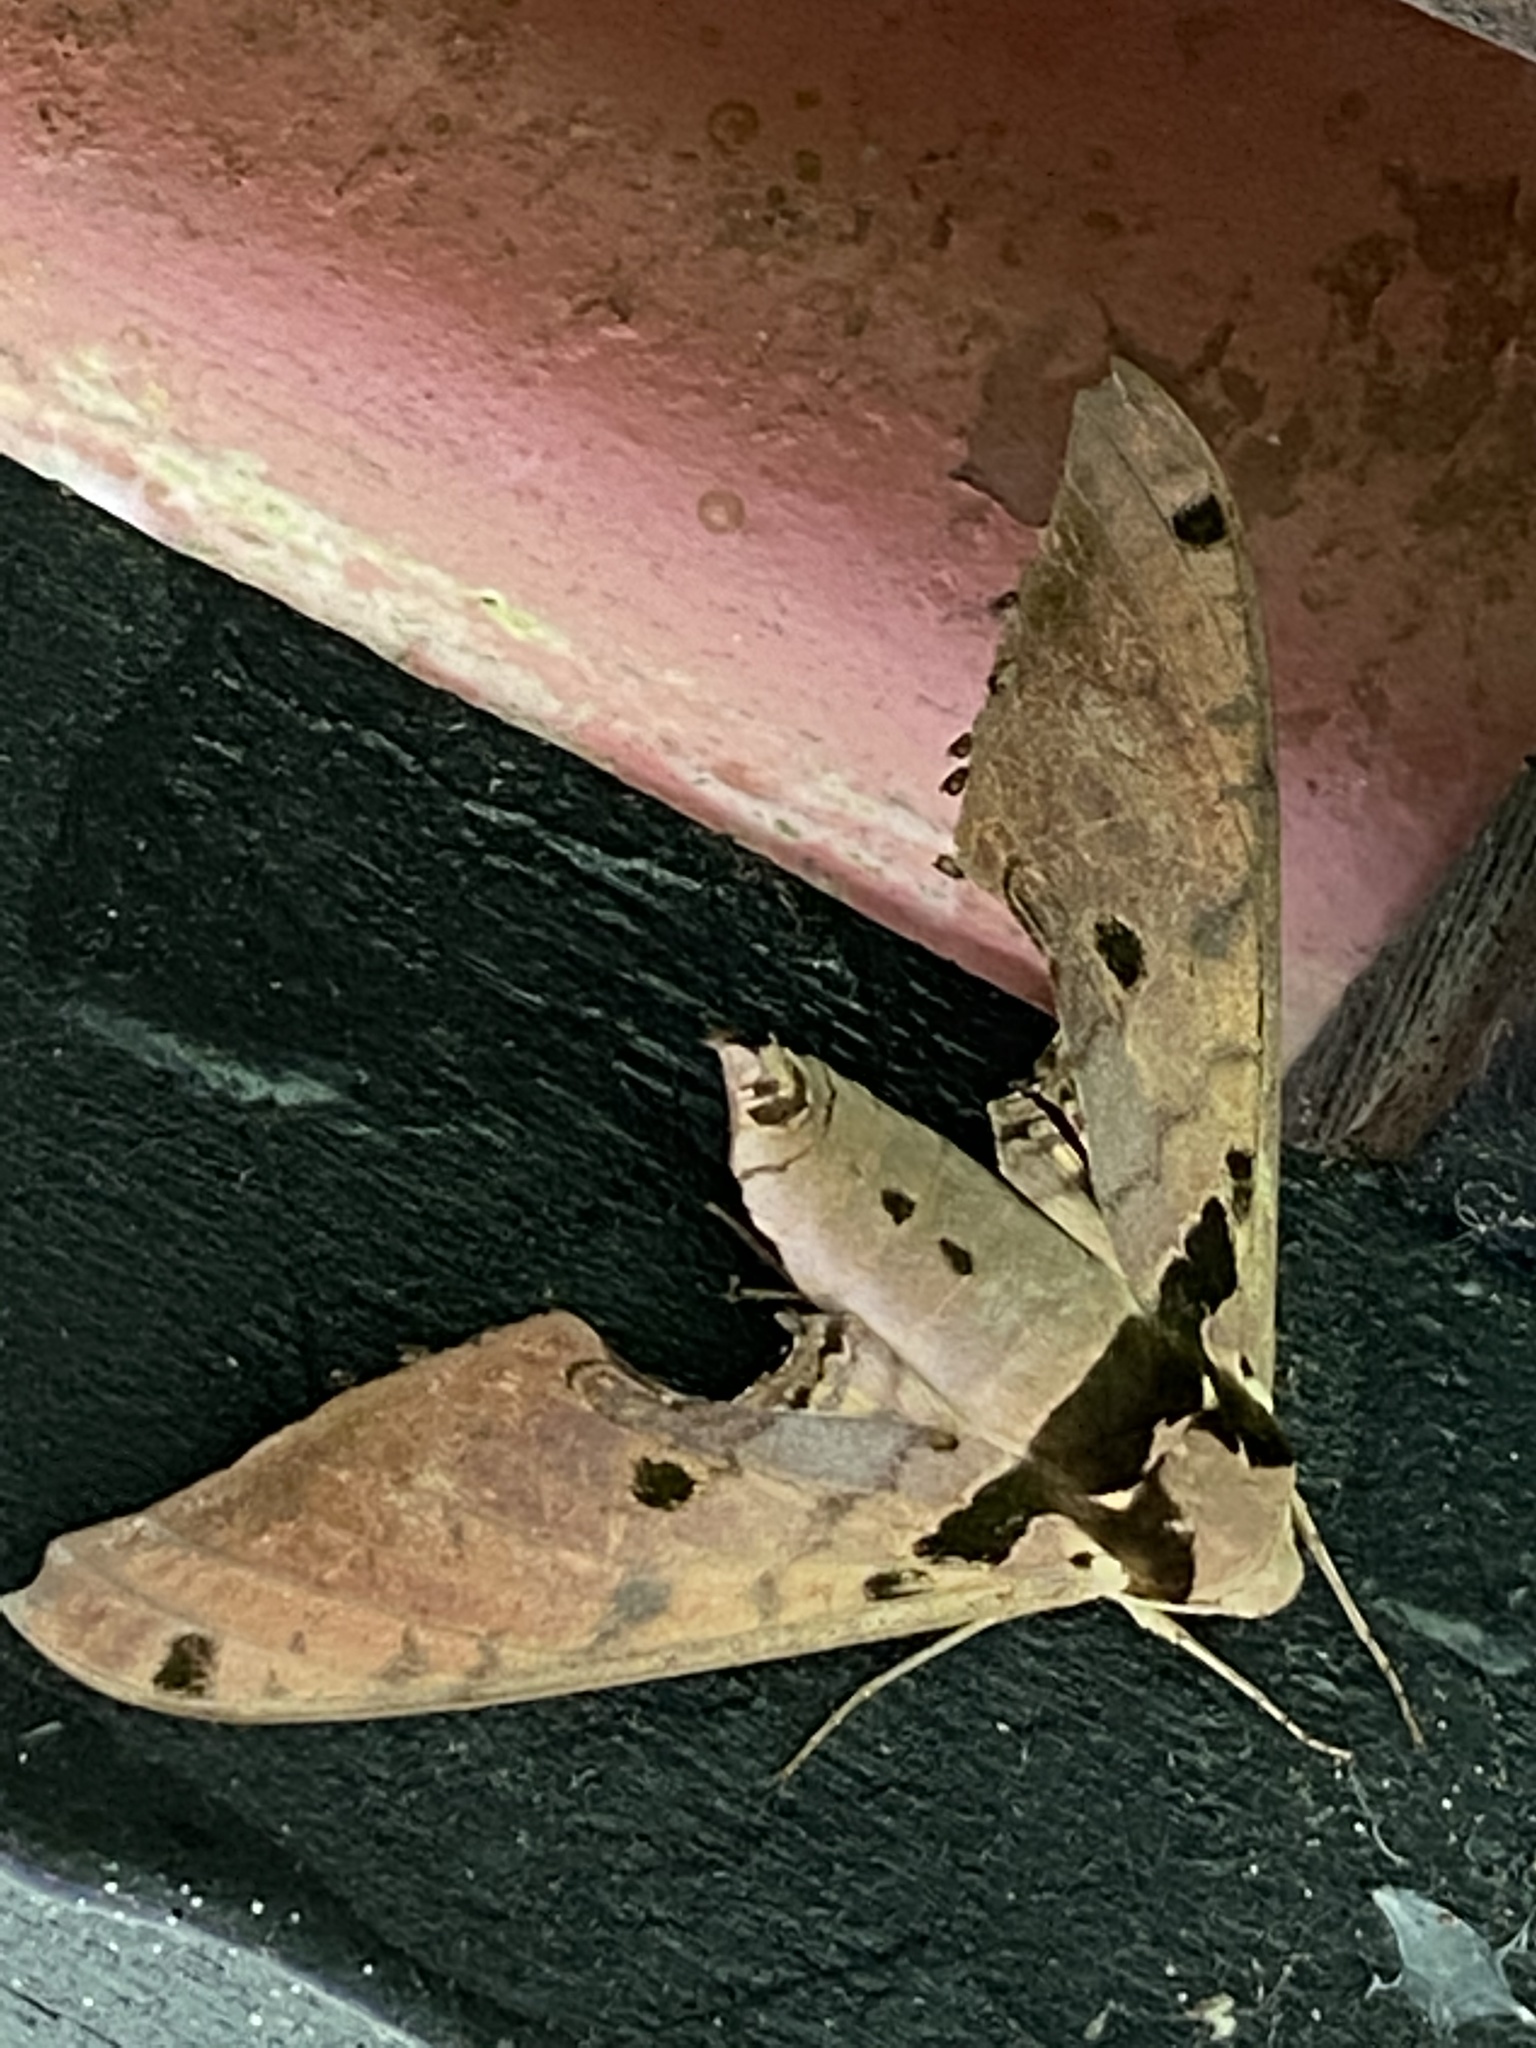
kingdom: Animalia
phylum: Arthropoda
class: Insecta
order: Lepidoptera
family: Sphingidae
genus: Adhemarius
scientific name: Adhemarius daphne
